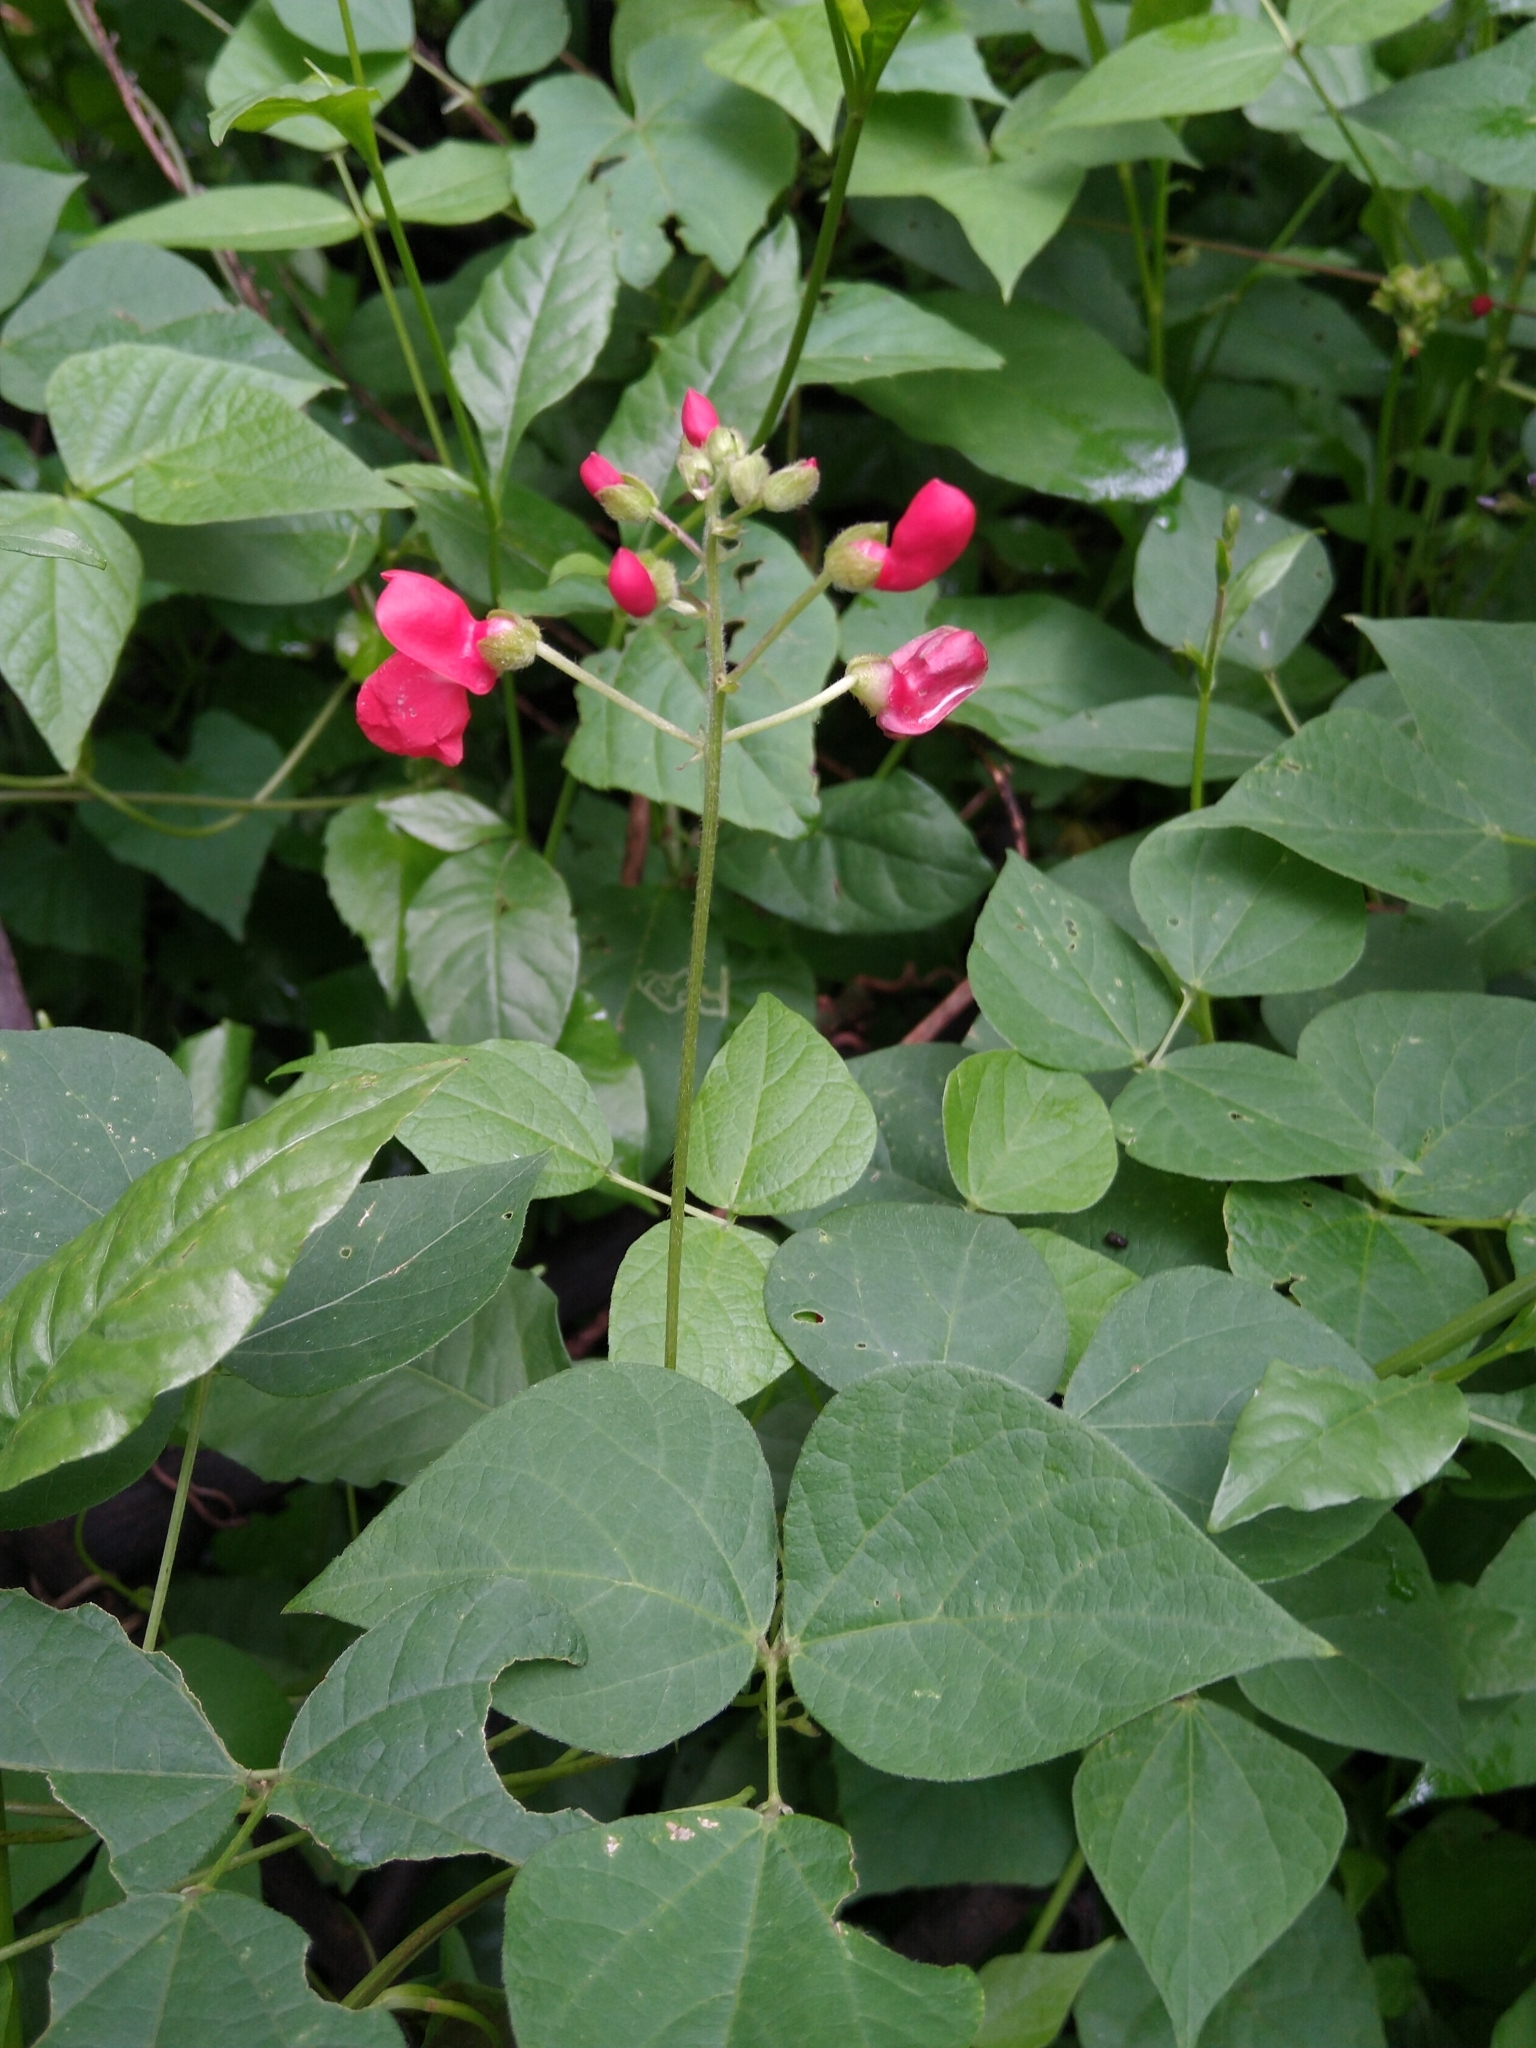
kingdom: Plantae
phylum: Tracheophyta
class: Magnoliopsida
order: Fabales
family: Fabaceae
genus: Phaseolus
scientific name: Phaseolus coccineus
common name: Runner bean
